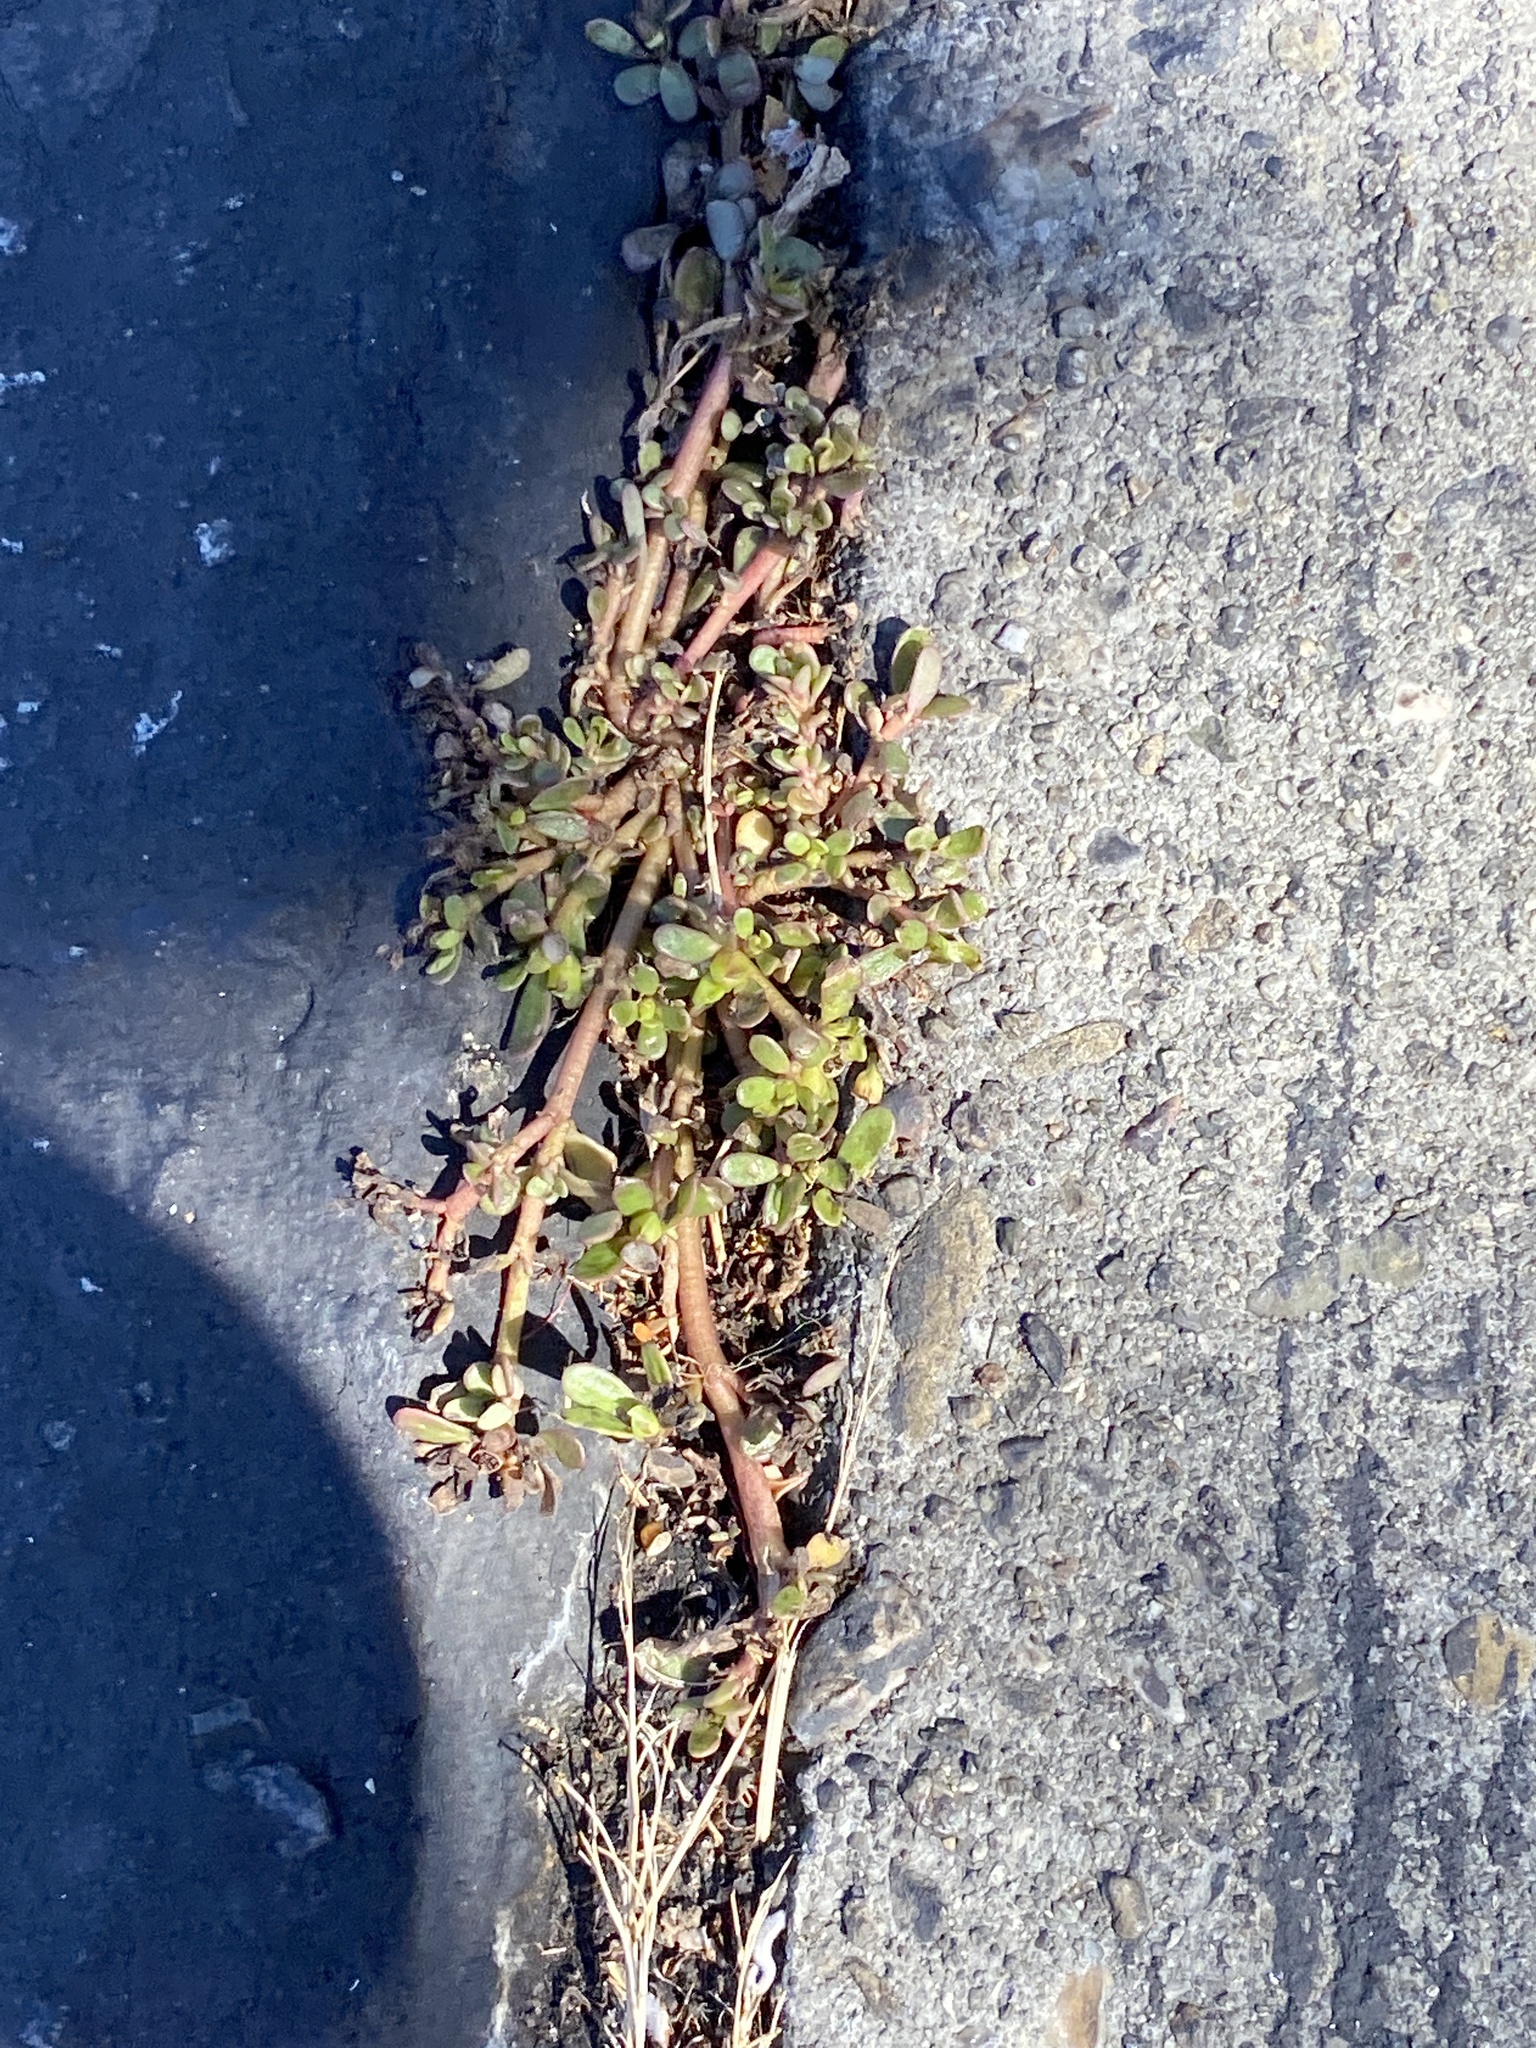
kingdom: Plantae
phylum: Tracheophyta
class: Magnoliopsida
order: Caryophyllales
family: Portulacaceae
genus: Portulaca
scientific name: Portulaca oleracea
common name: Common purslane
